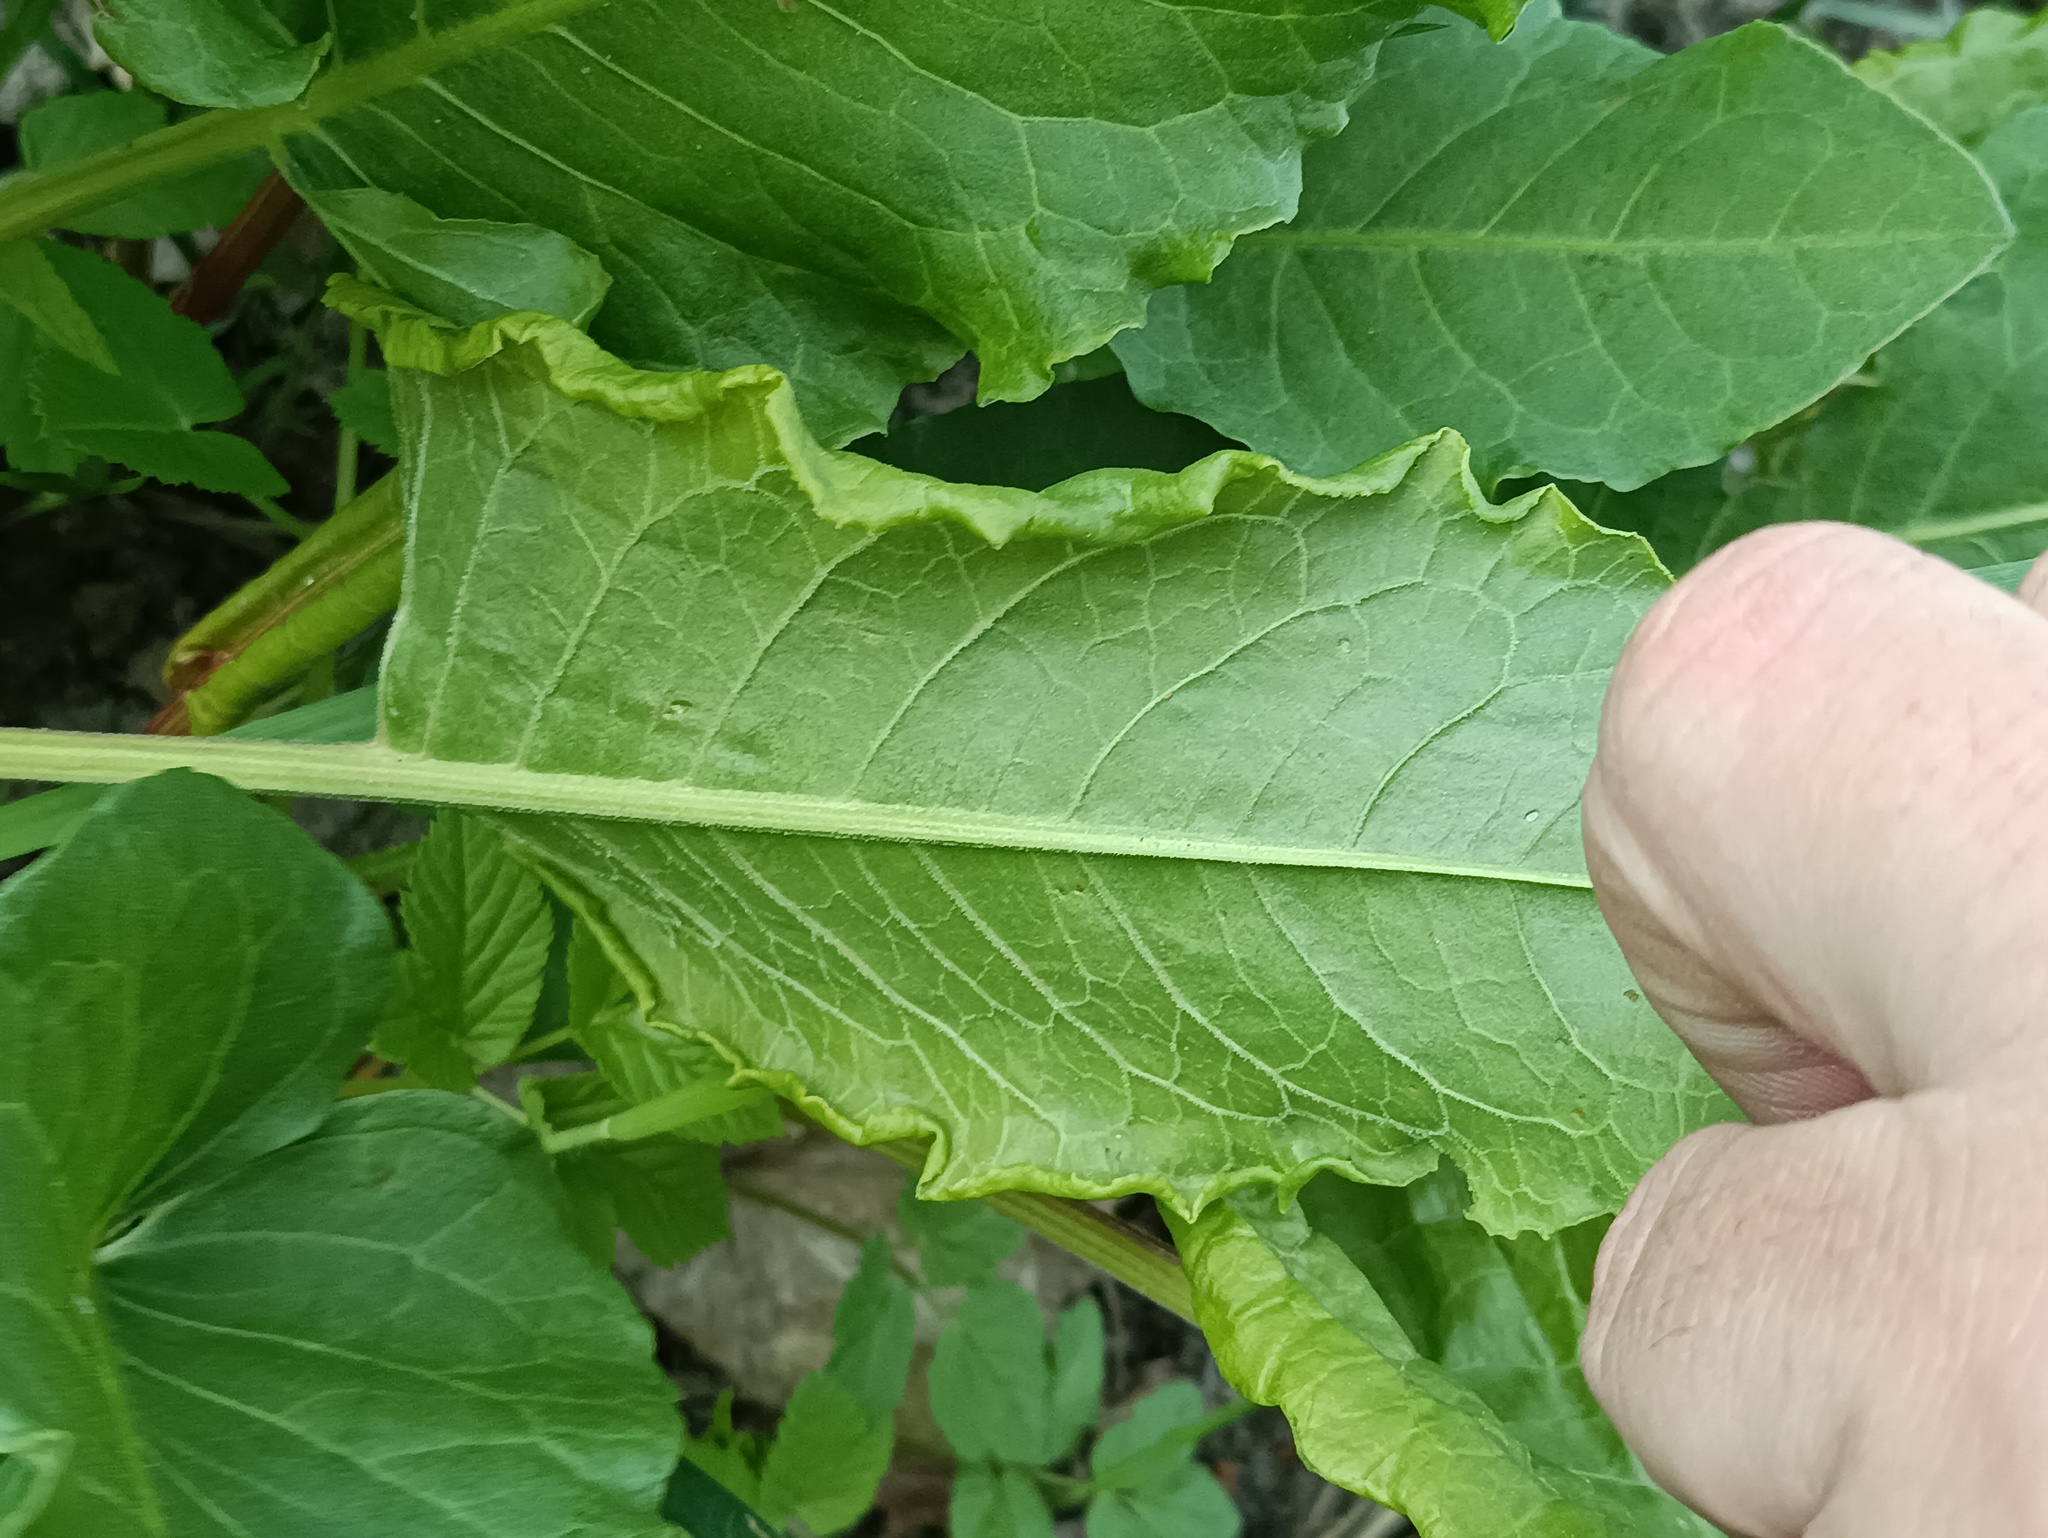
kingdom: Plantae
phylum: Tracheophyta
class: Magnoliopsida
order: Caryophyllales
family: Polygonaceae
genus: Rumex
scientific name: Rumex confertus
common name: Russian dock
